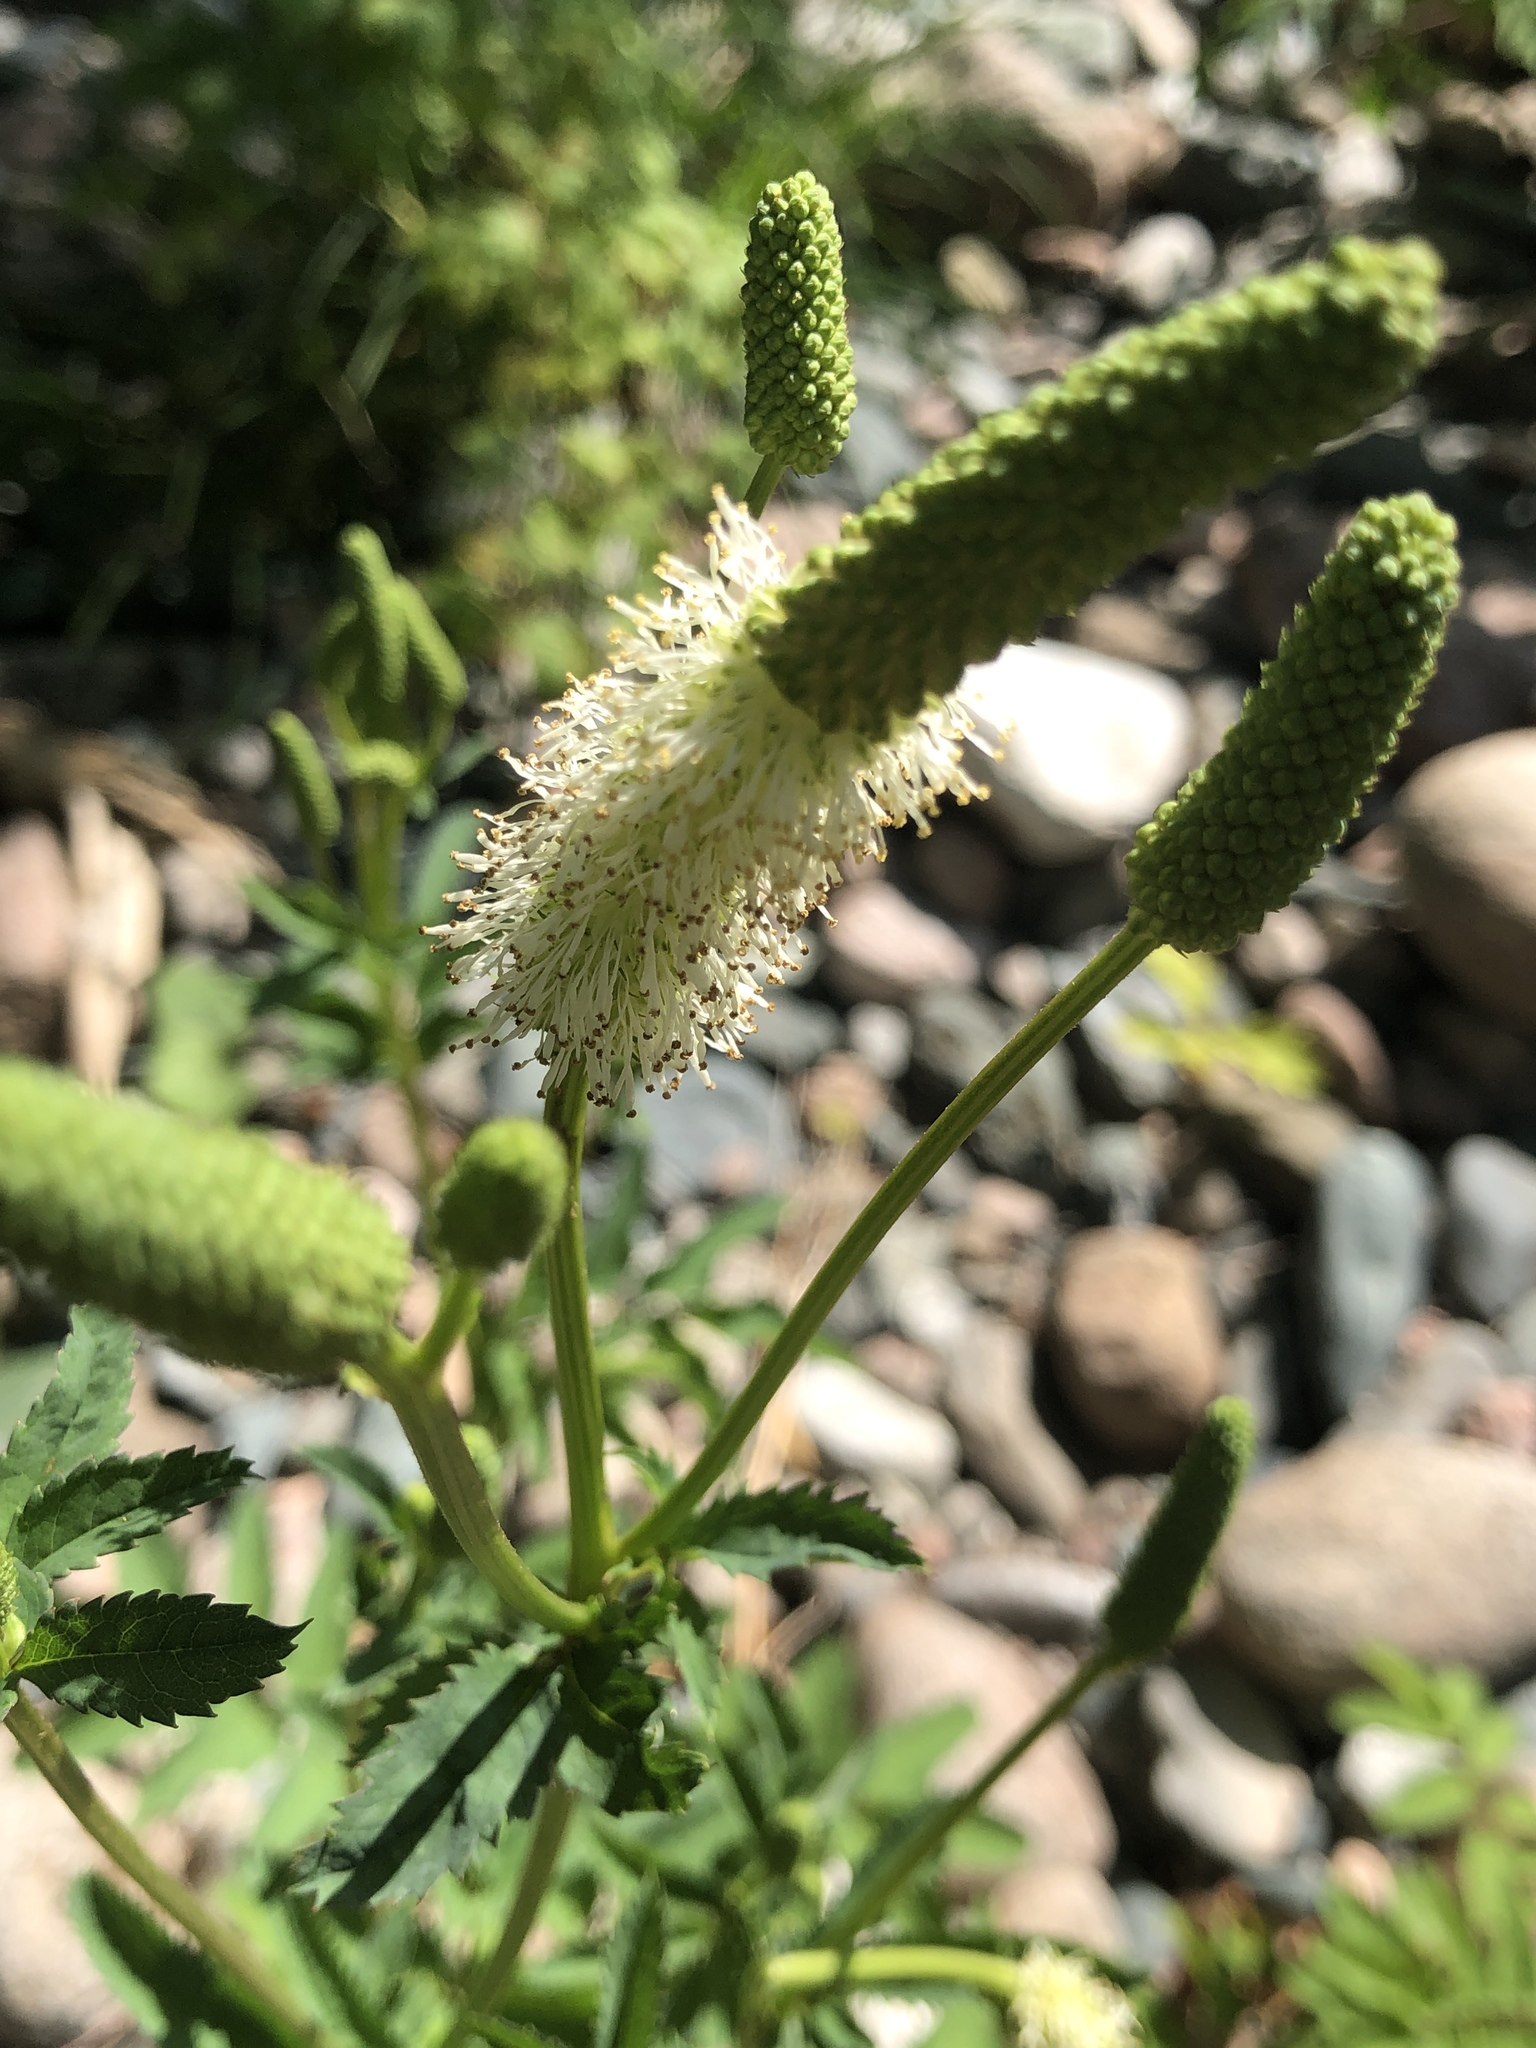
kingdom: Plantae
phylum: Tracheophyta
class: Magnoliopsida
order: Rosales
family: Rosaceae
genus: Sanguisorba
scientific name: Sanguisorba canadensis
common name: White burnet
